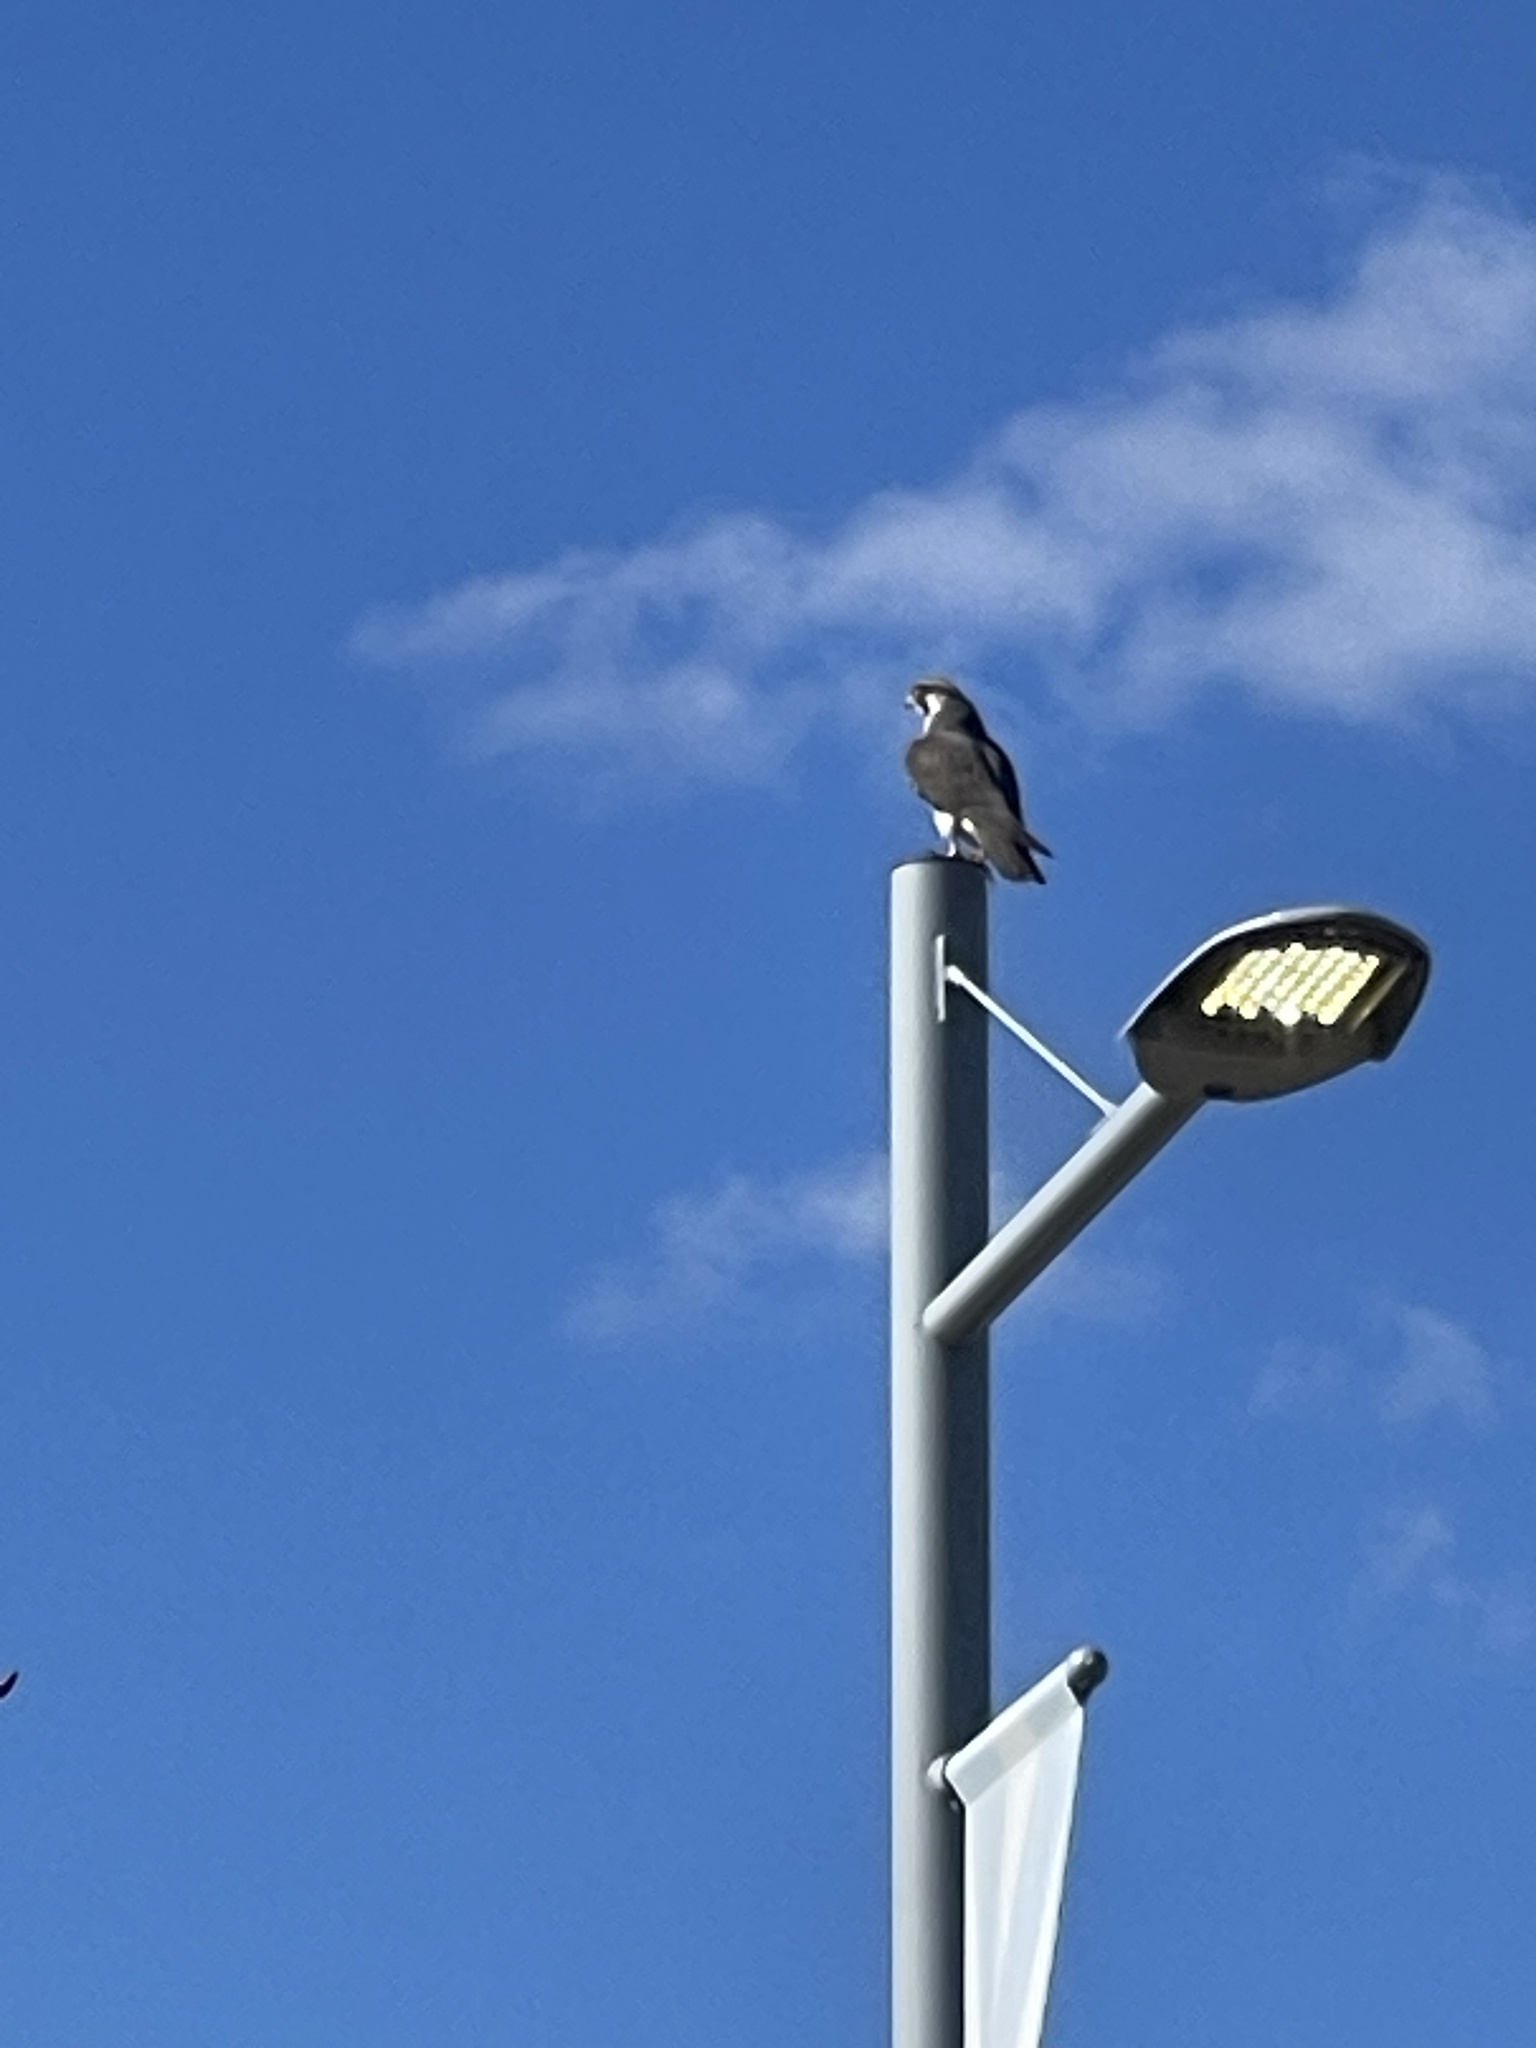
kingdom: Animalia
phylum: Chordata
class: Aves
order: Falconiformes
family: Falconidae
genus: Falco
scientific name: Falco peregrinus
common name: Peregrine falcon
